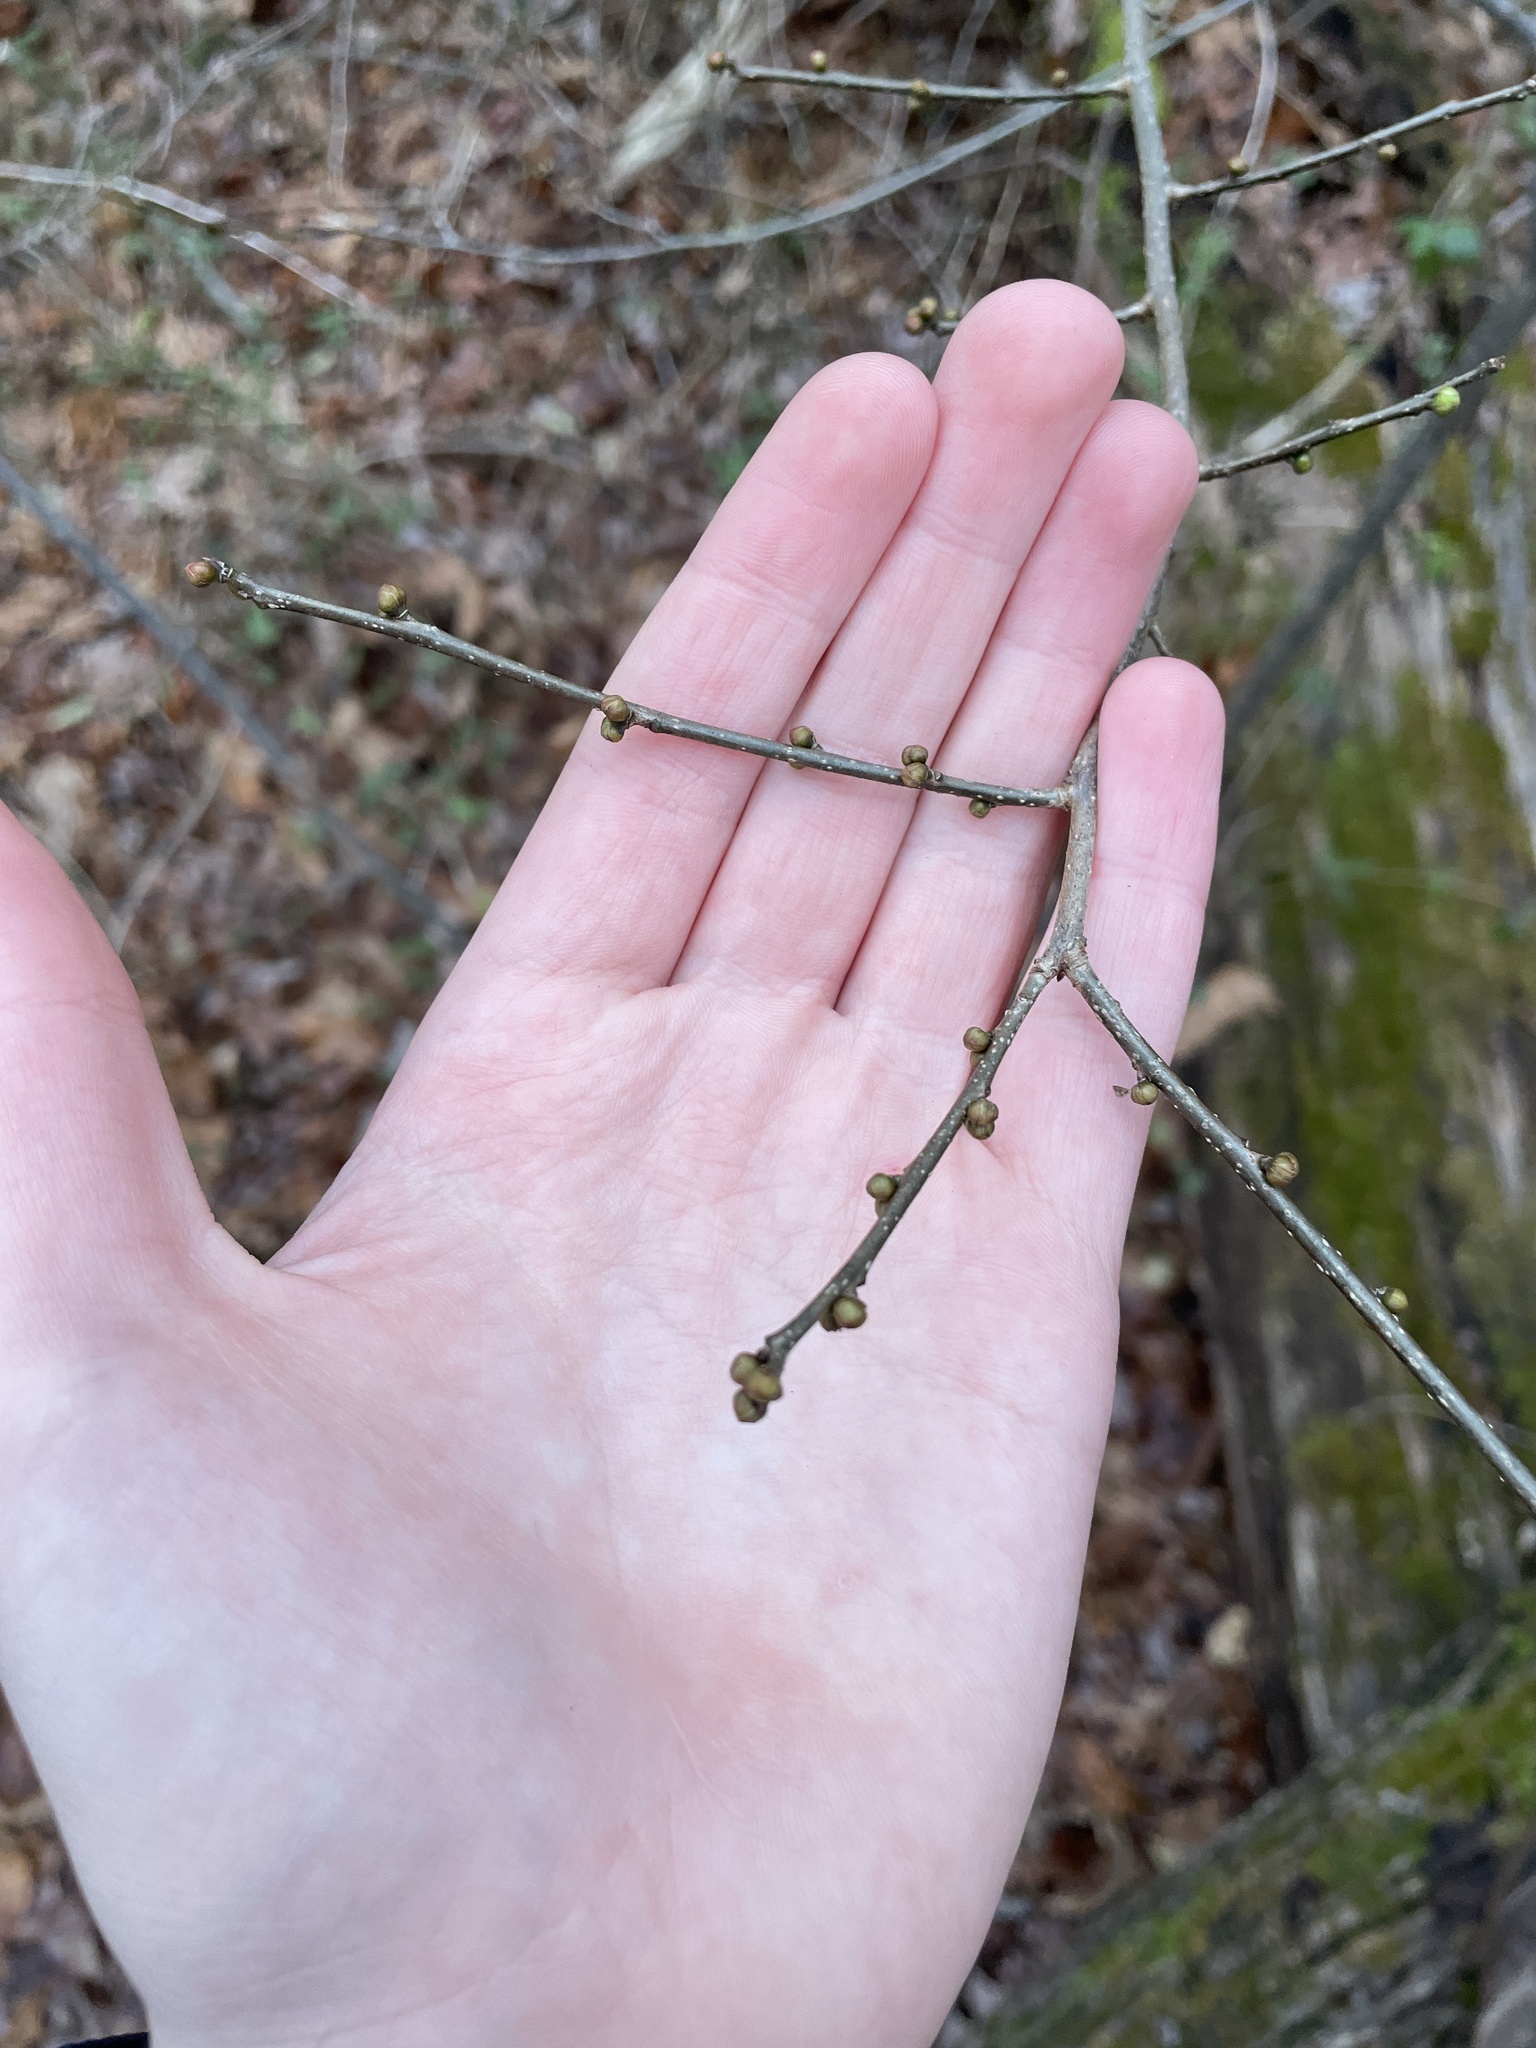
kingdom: Plantae
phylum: Tracheophyta
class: Magnoliopsida
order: Laurales
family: Lauraceae
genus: Lindera
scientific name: Lindera benzoin
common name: Spicebush
